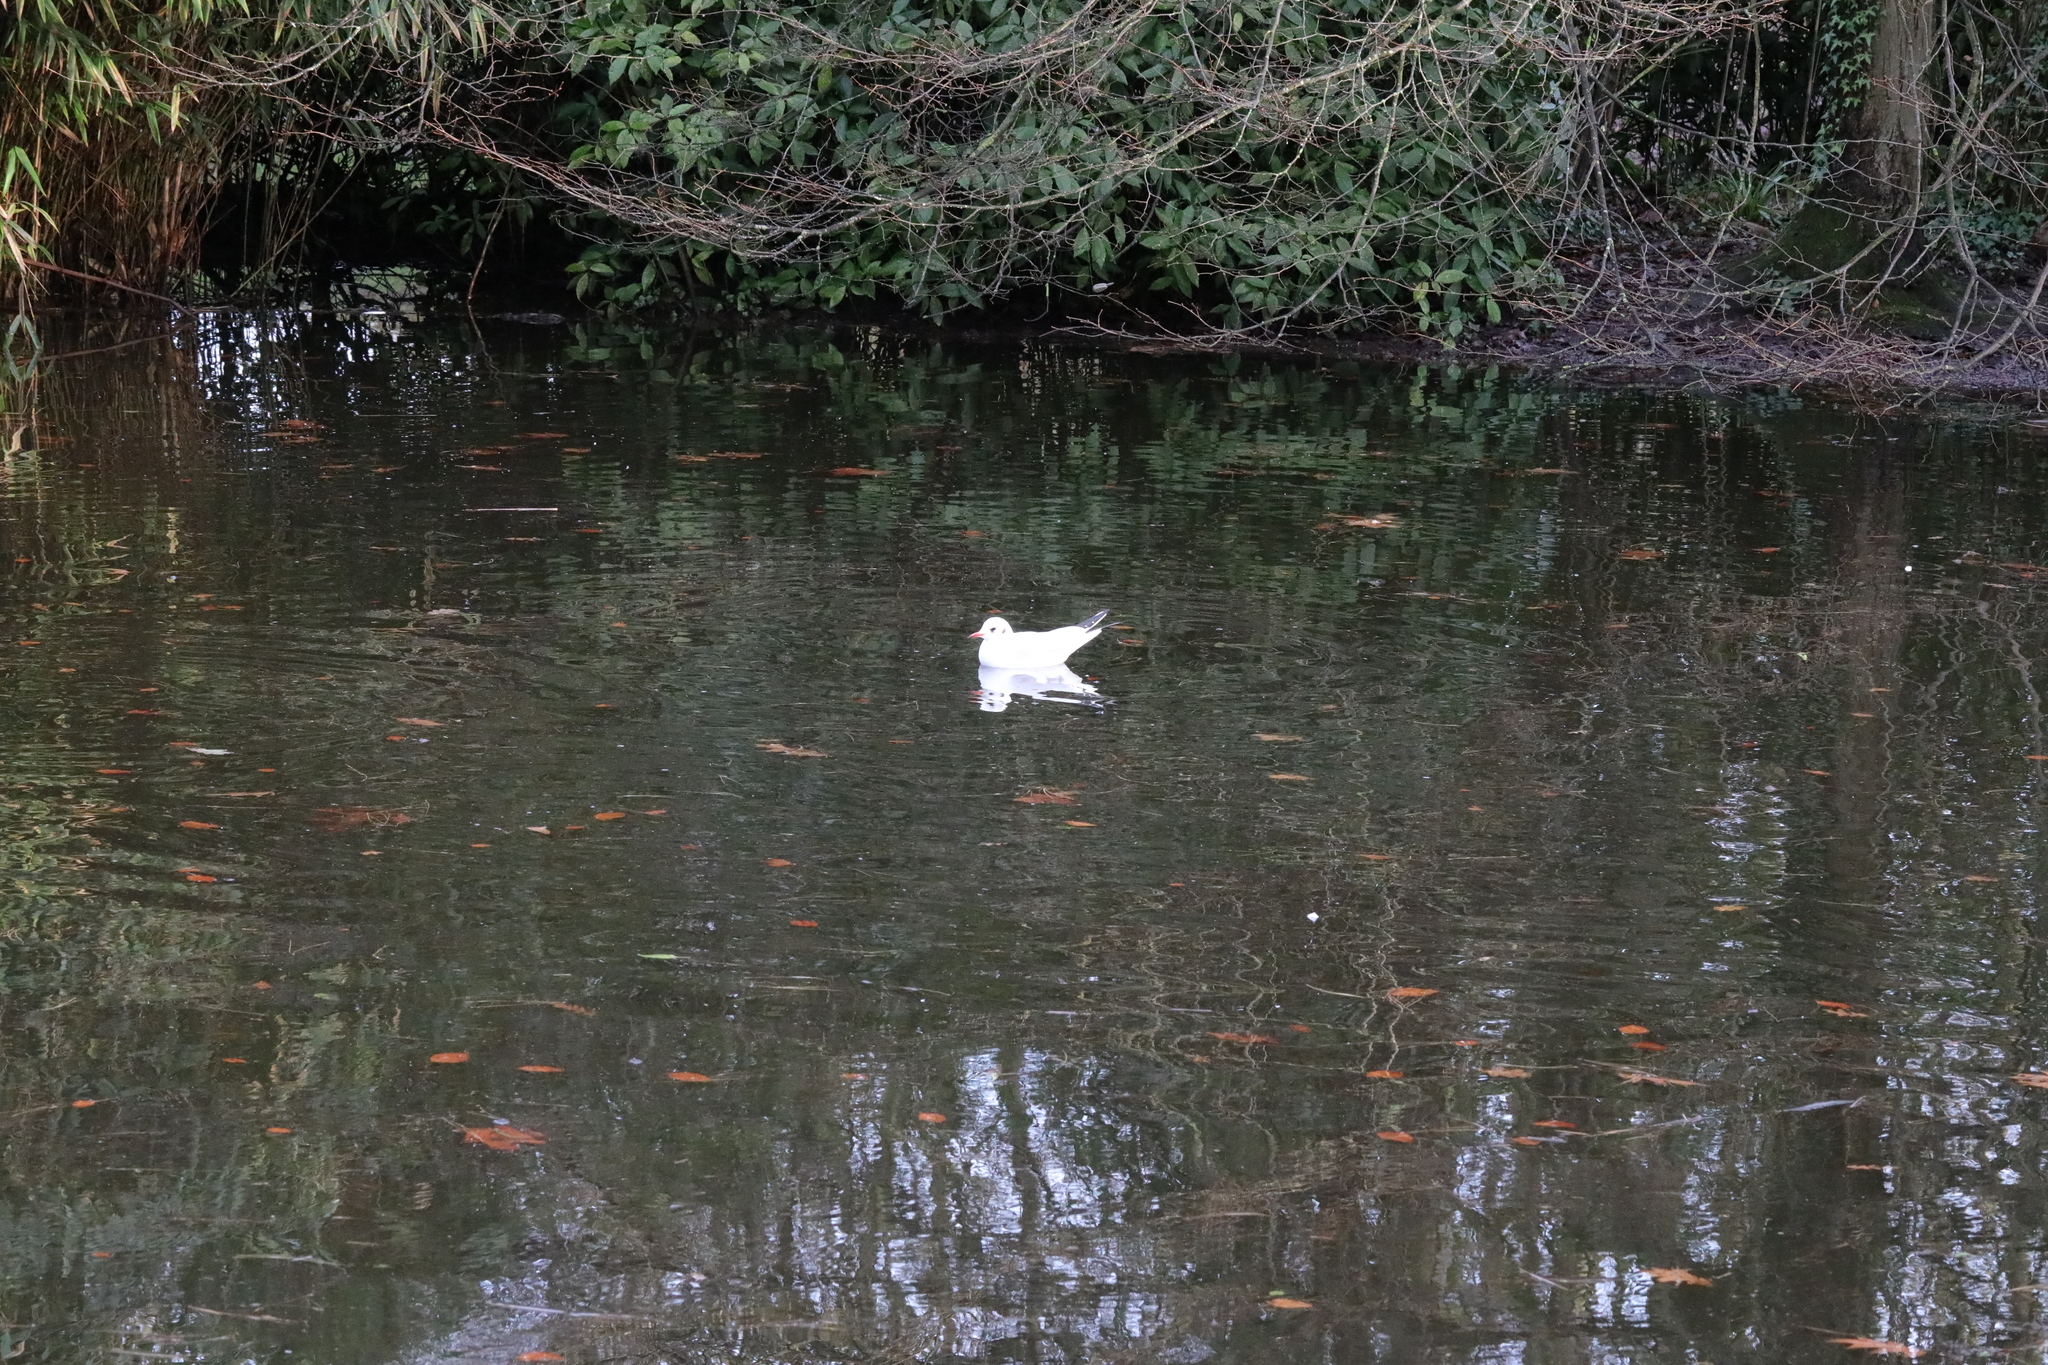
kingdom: Animalia
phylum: Chordata
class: Aves
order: Charadriiformes
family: Laridae
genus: Chroicocephalus
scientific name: Chroicocephalus ridibundus
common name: Black-headed gull
